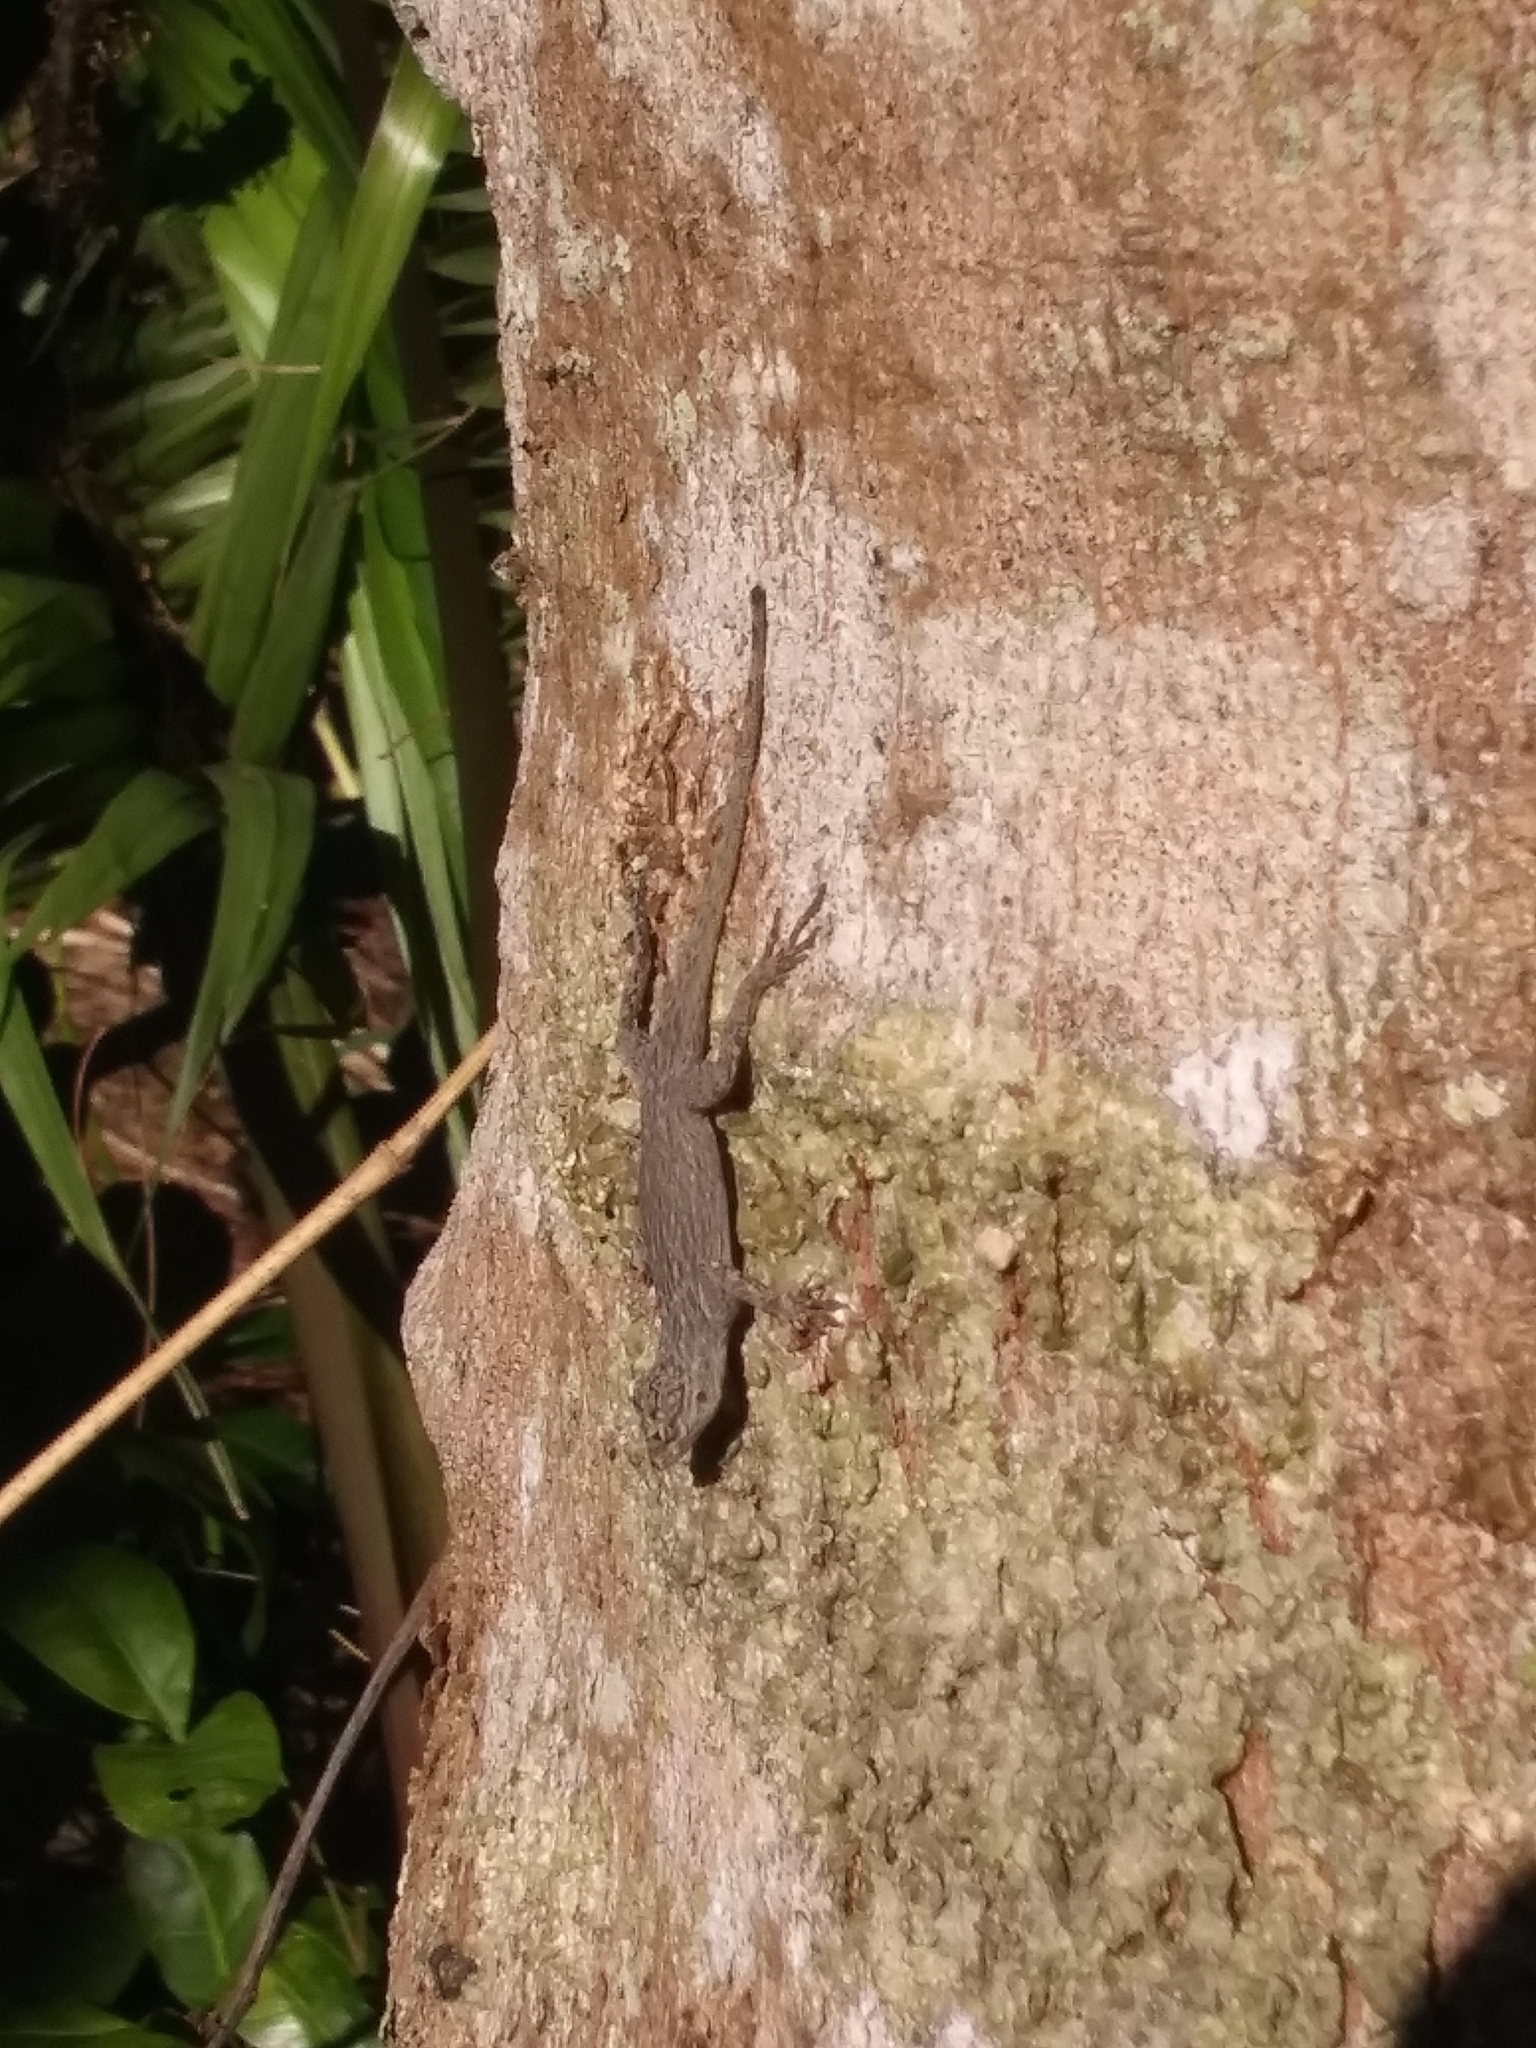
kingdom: Animalia
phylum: Chordata
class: Squamata
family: Dactyloidae
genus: Anolis
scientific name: Anolis distichus
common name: Bark anole
